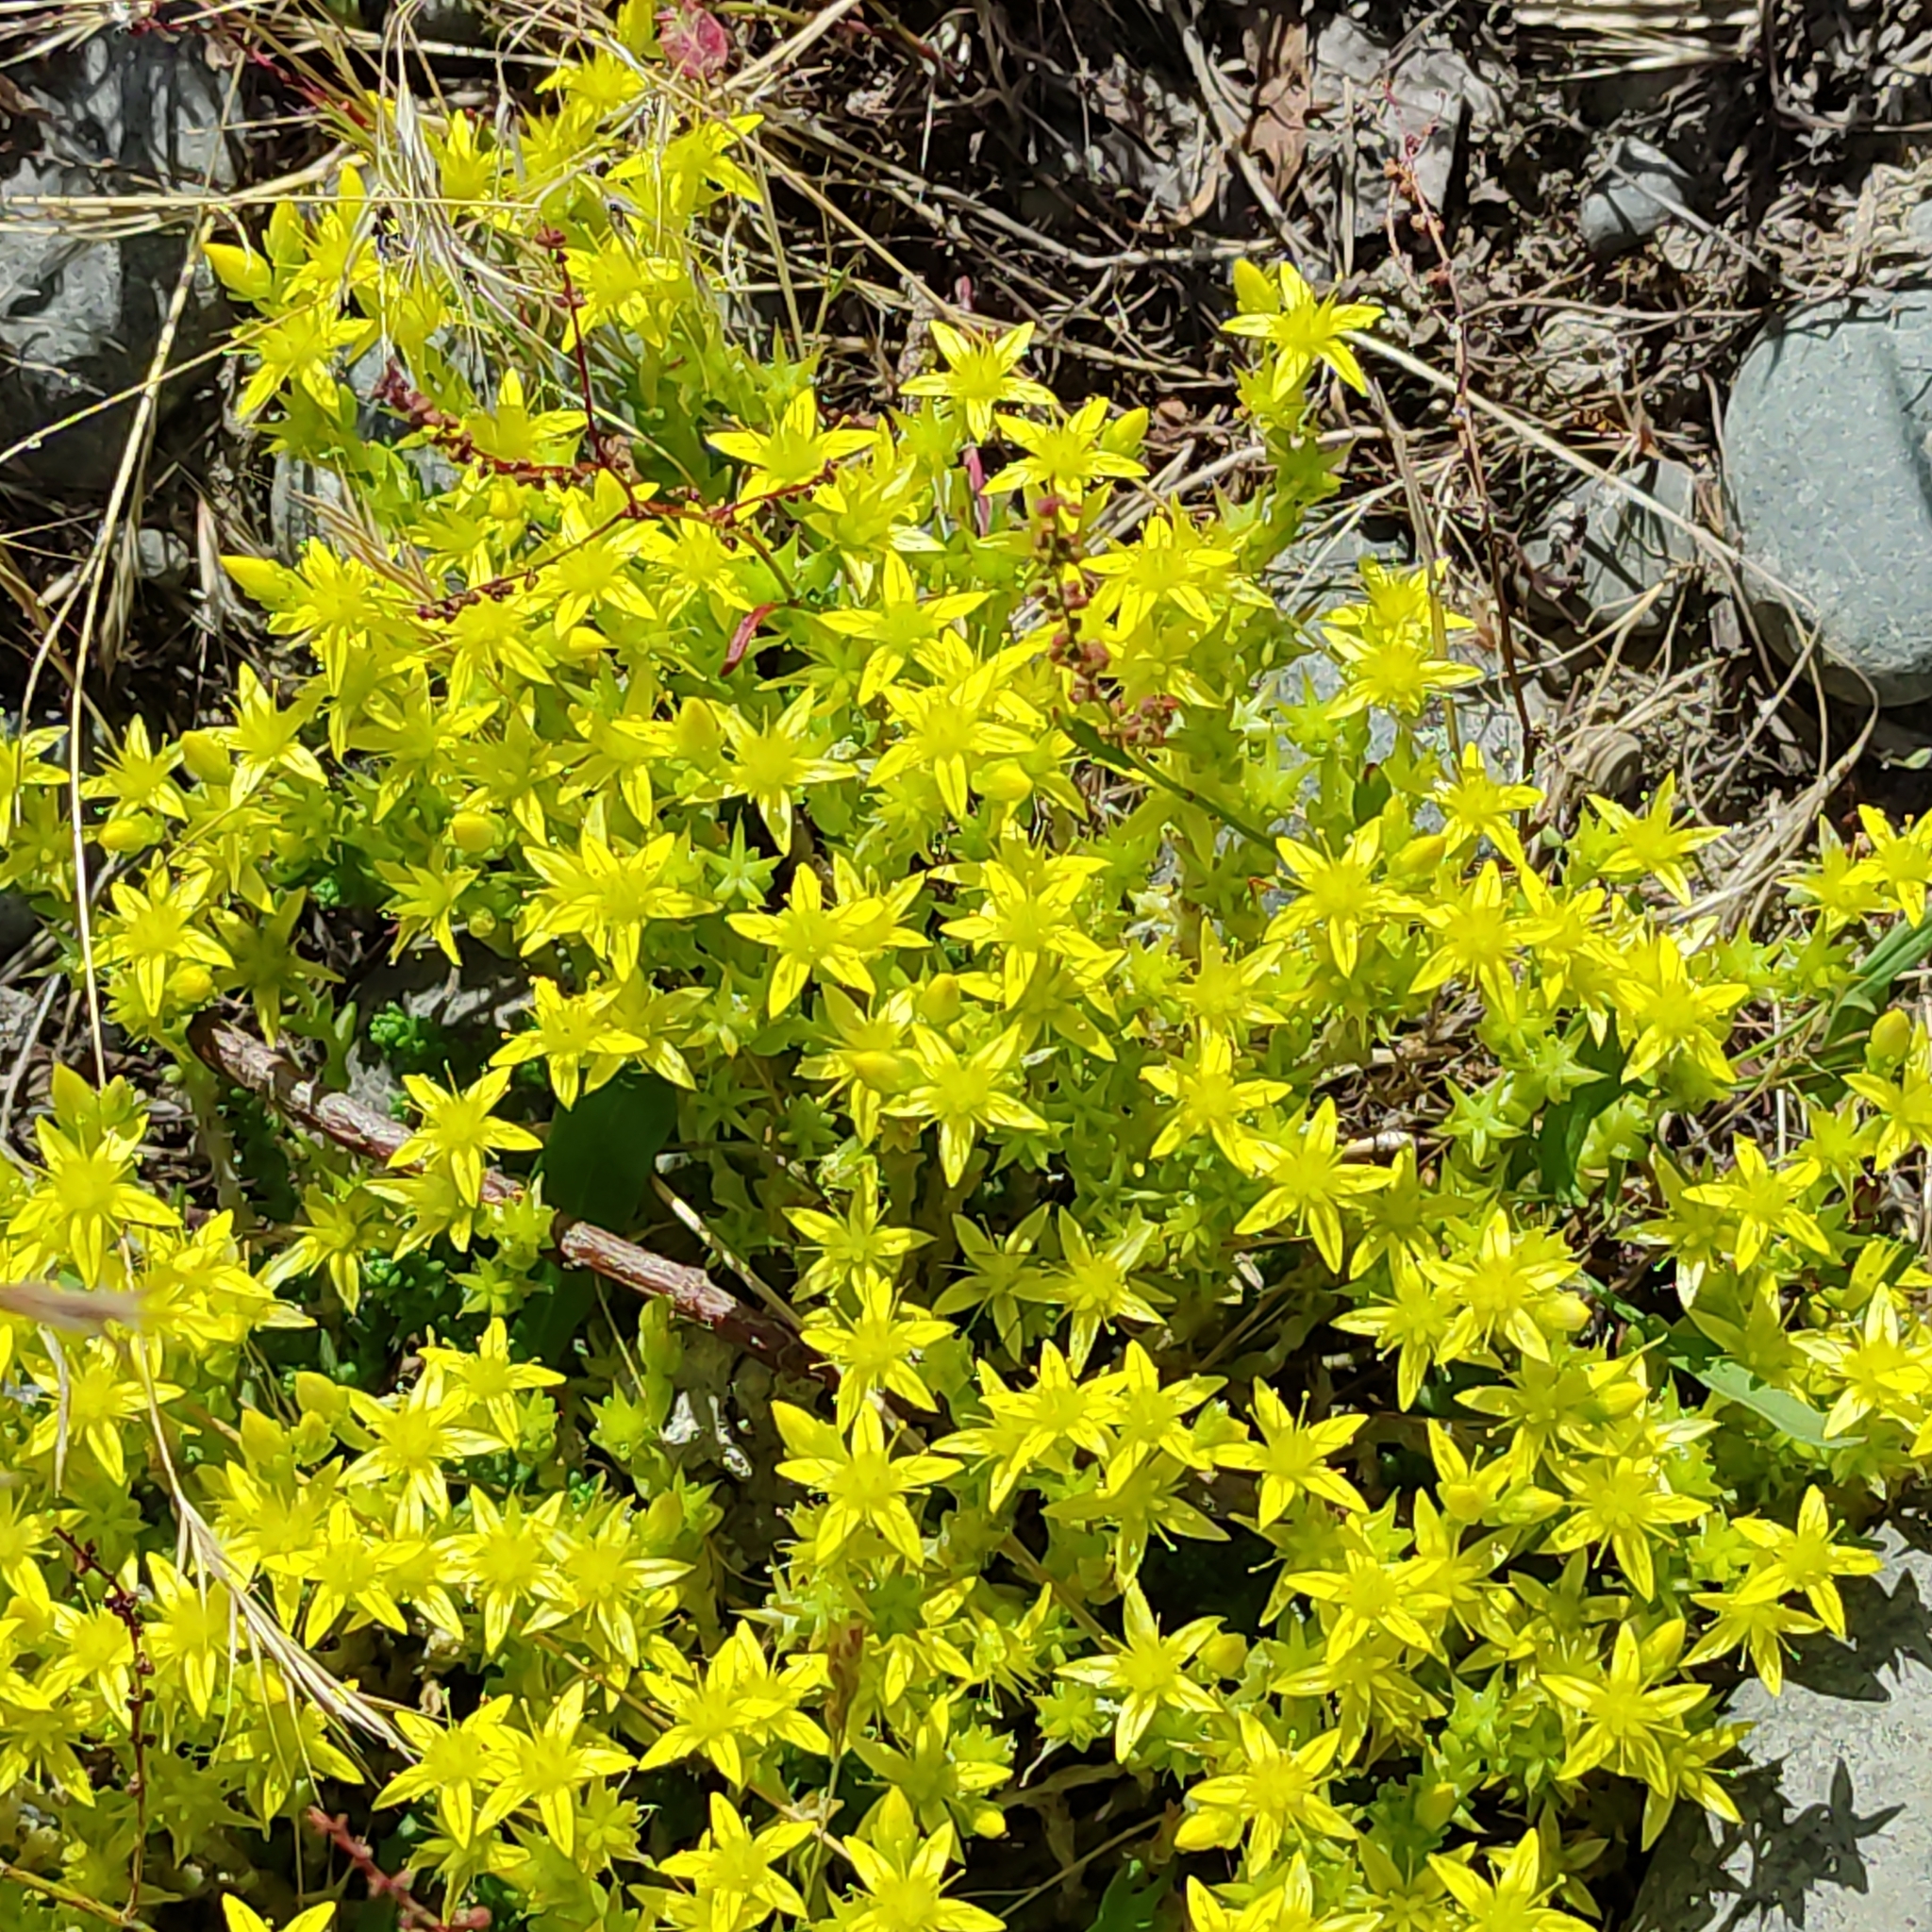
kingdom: Plantae
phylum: Tracheophyta
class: Magnoliopsida
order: Saxifragales
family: Crassulaceae
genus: Sedum
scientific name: Sedum acre
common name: Biting stonecrop
